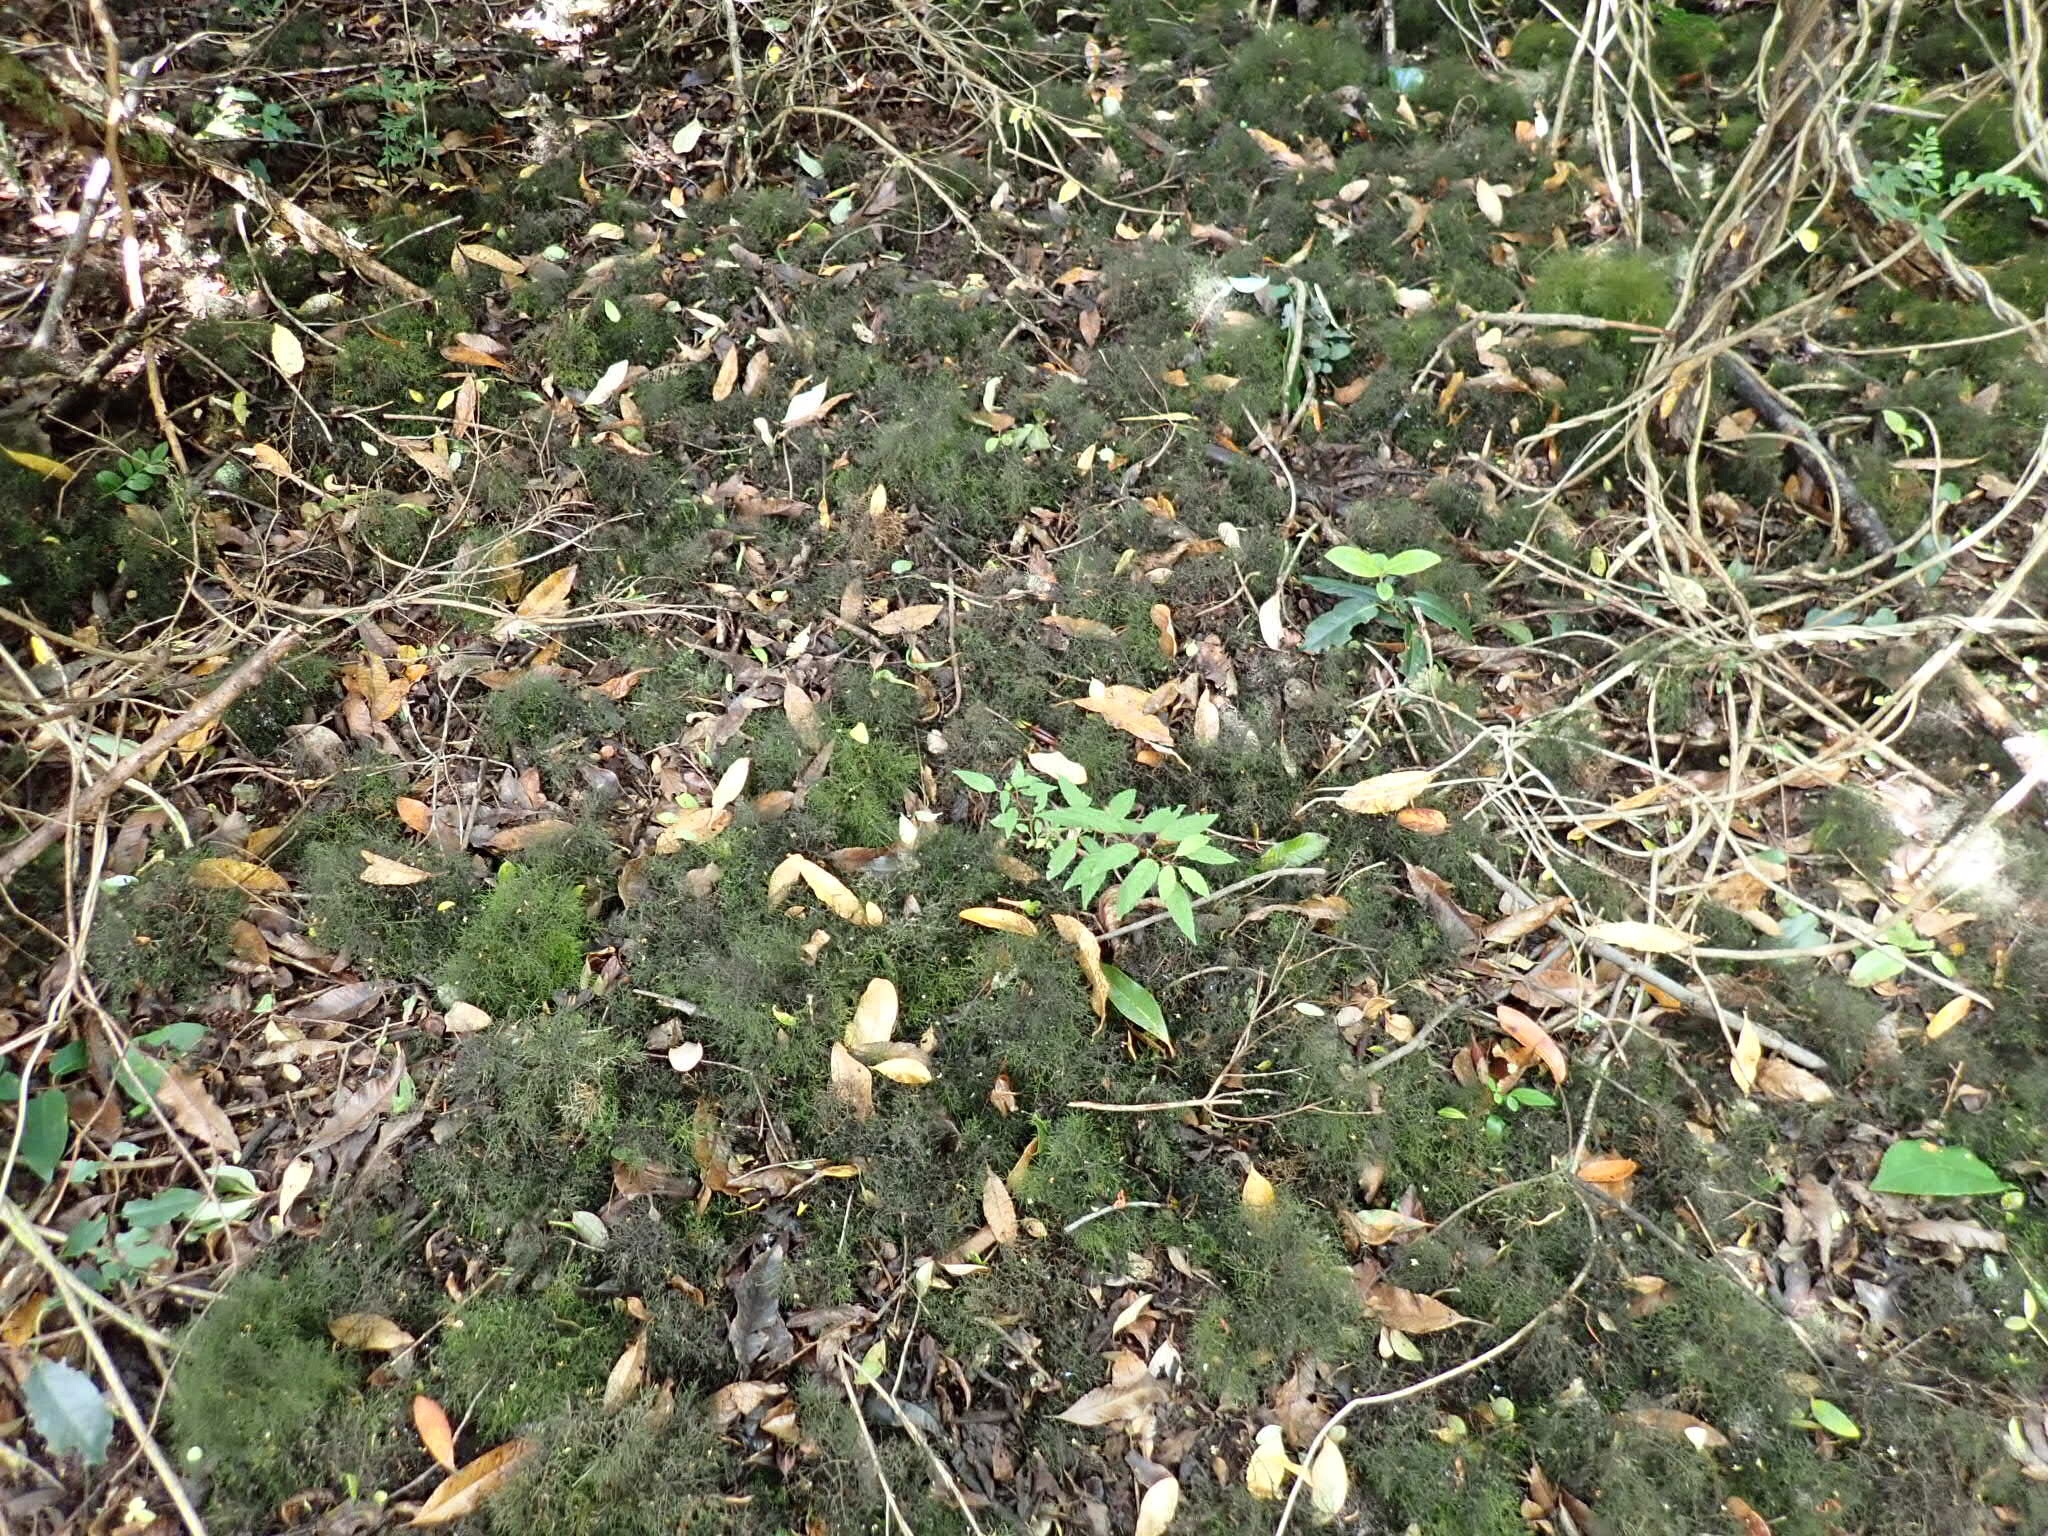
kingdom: Plantae
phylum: Bryophyta
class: Bryopsida
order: Hypnales
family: Lembophyllaceae
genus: Rigodium
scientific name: Rigodium implexum
